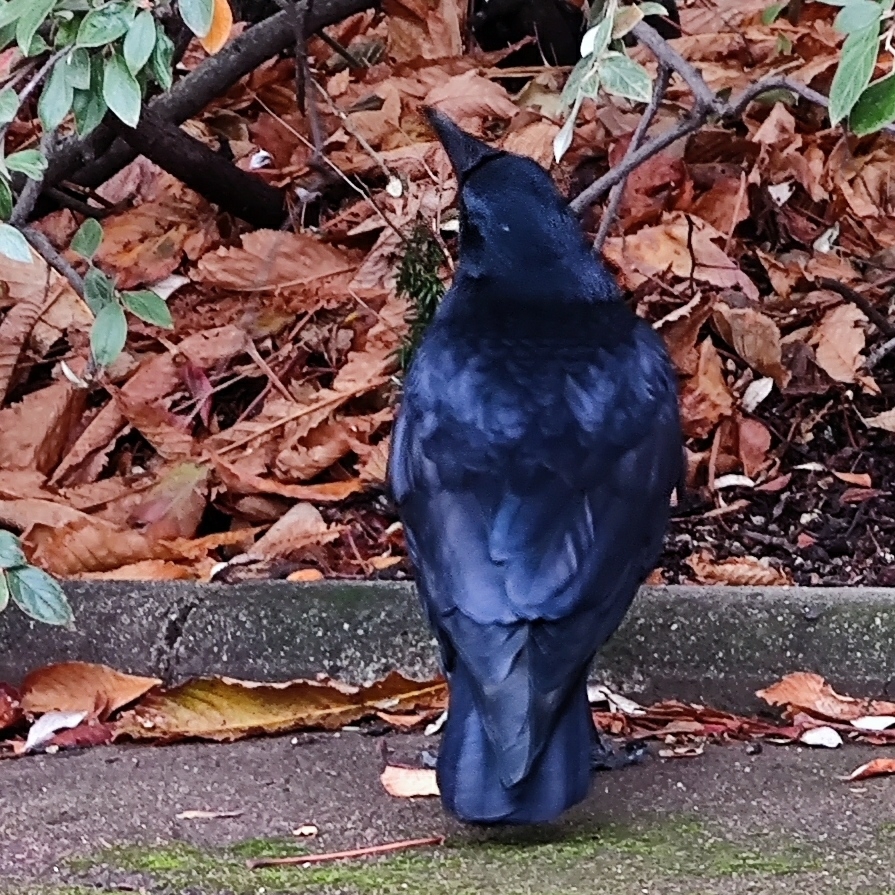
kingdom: Animalia
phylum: Chordata
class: Aves
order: Passeriformes
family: Corvidae
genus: Corvus
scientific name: Corvus corone
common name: Carrion crow
